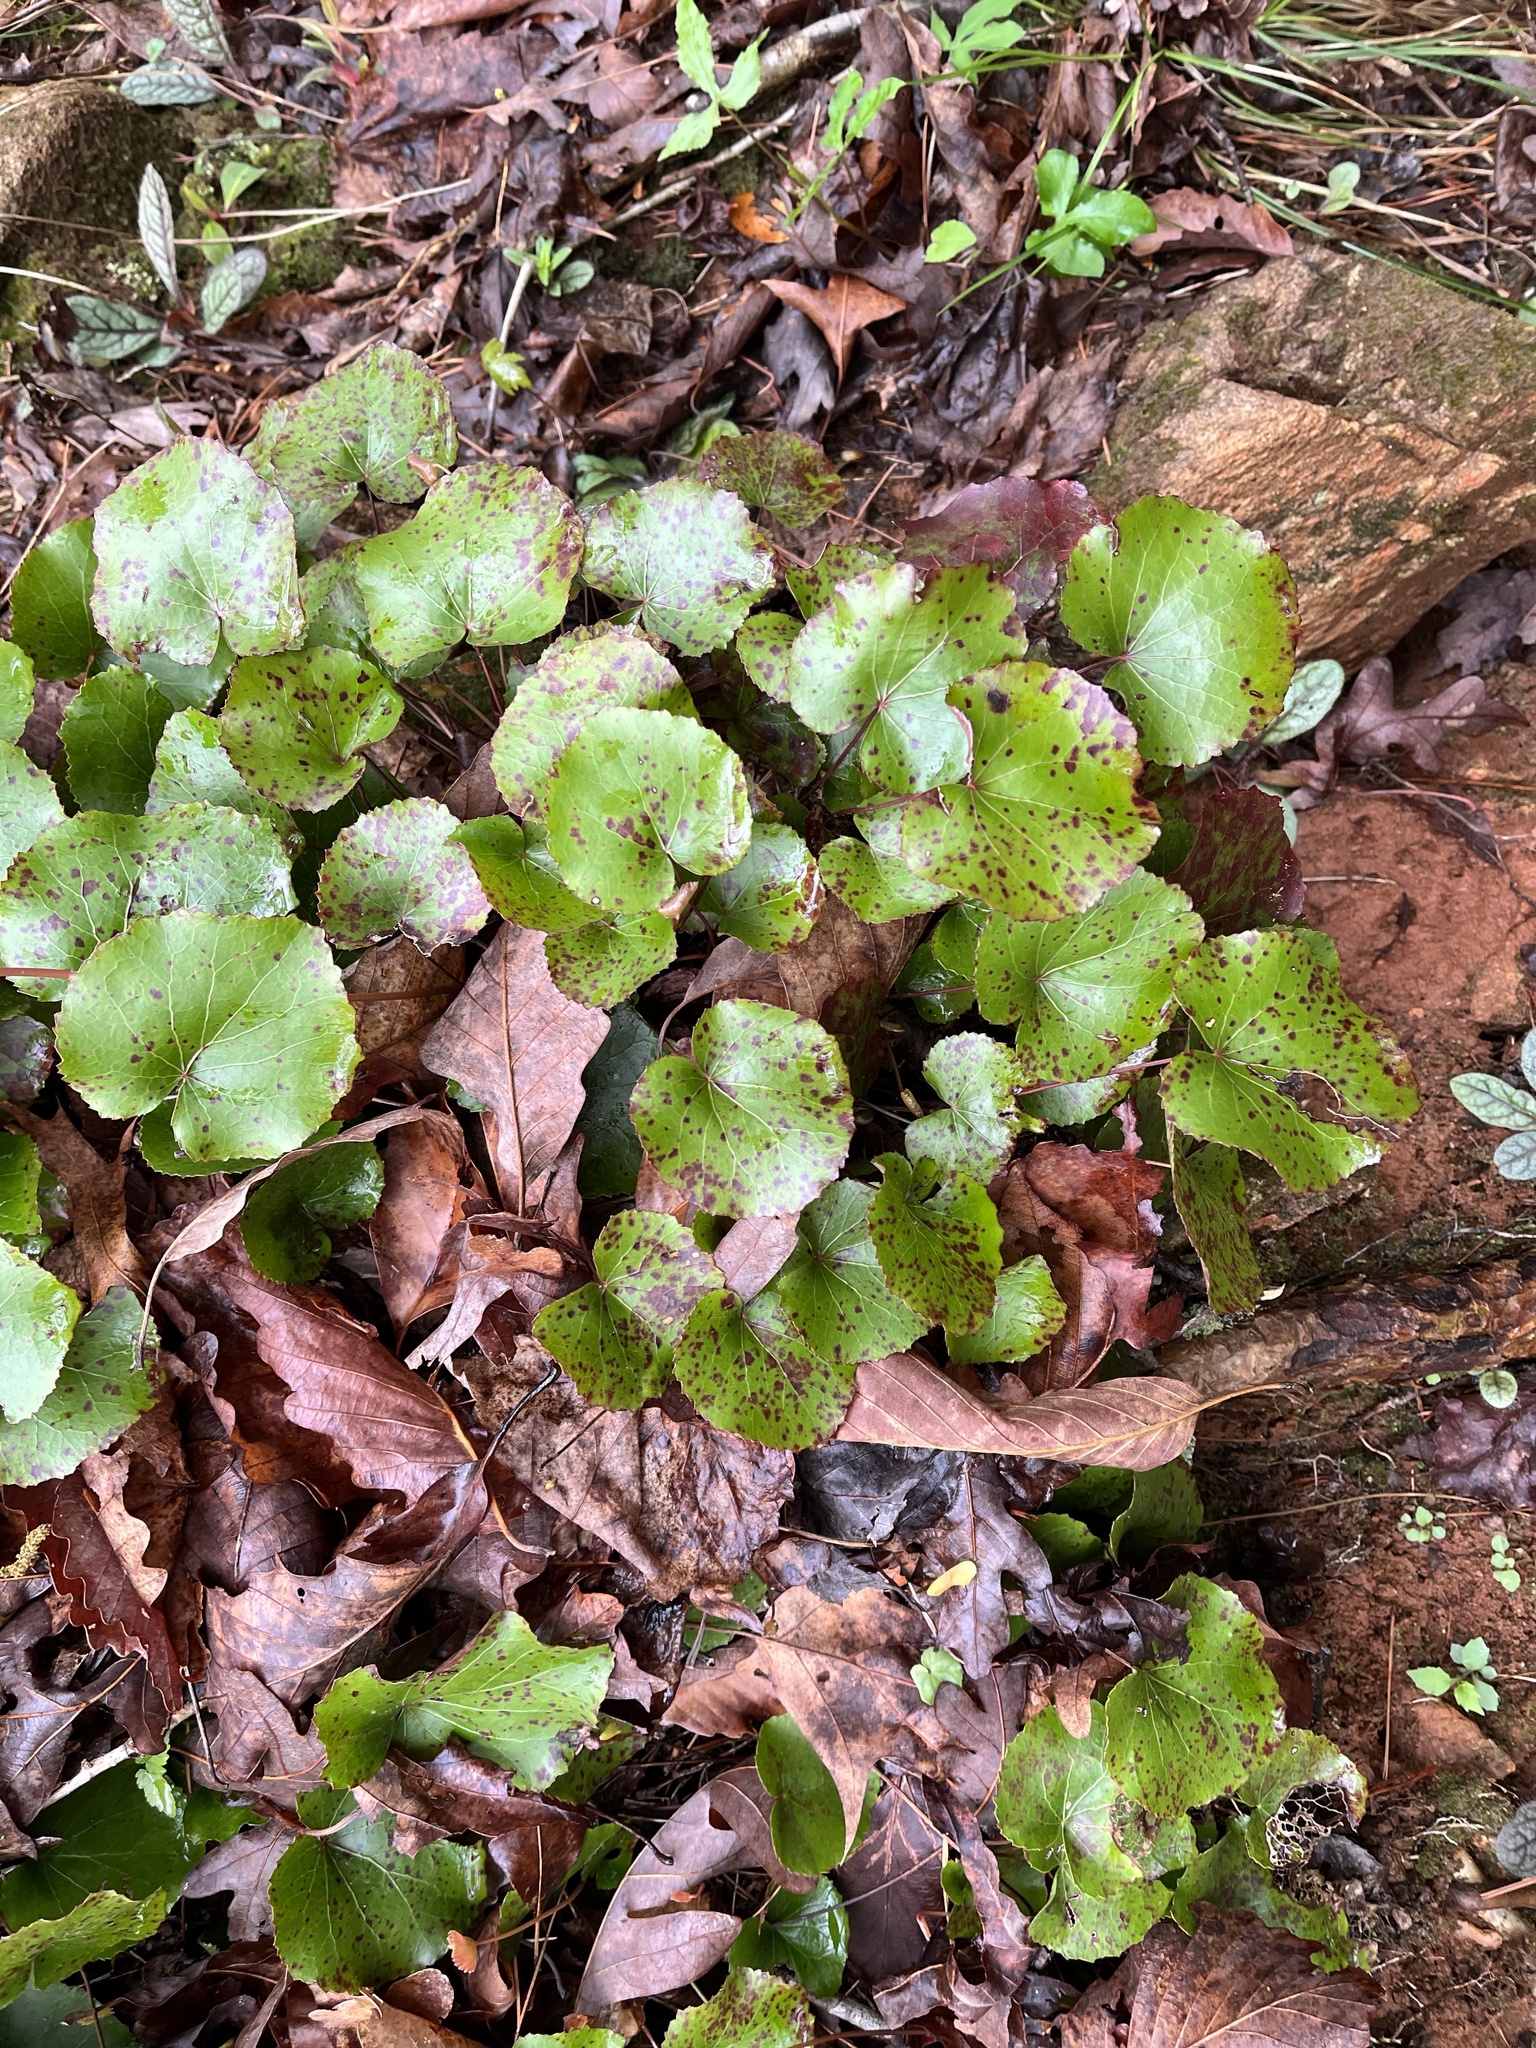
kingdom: Plantae
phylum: Tracheophyta
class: Magnoliopsida
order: Ericales
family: Diapensiaceae
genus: Galax
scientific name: Galax urceolata
